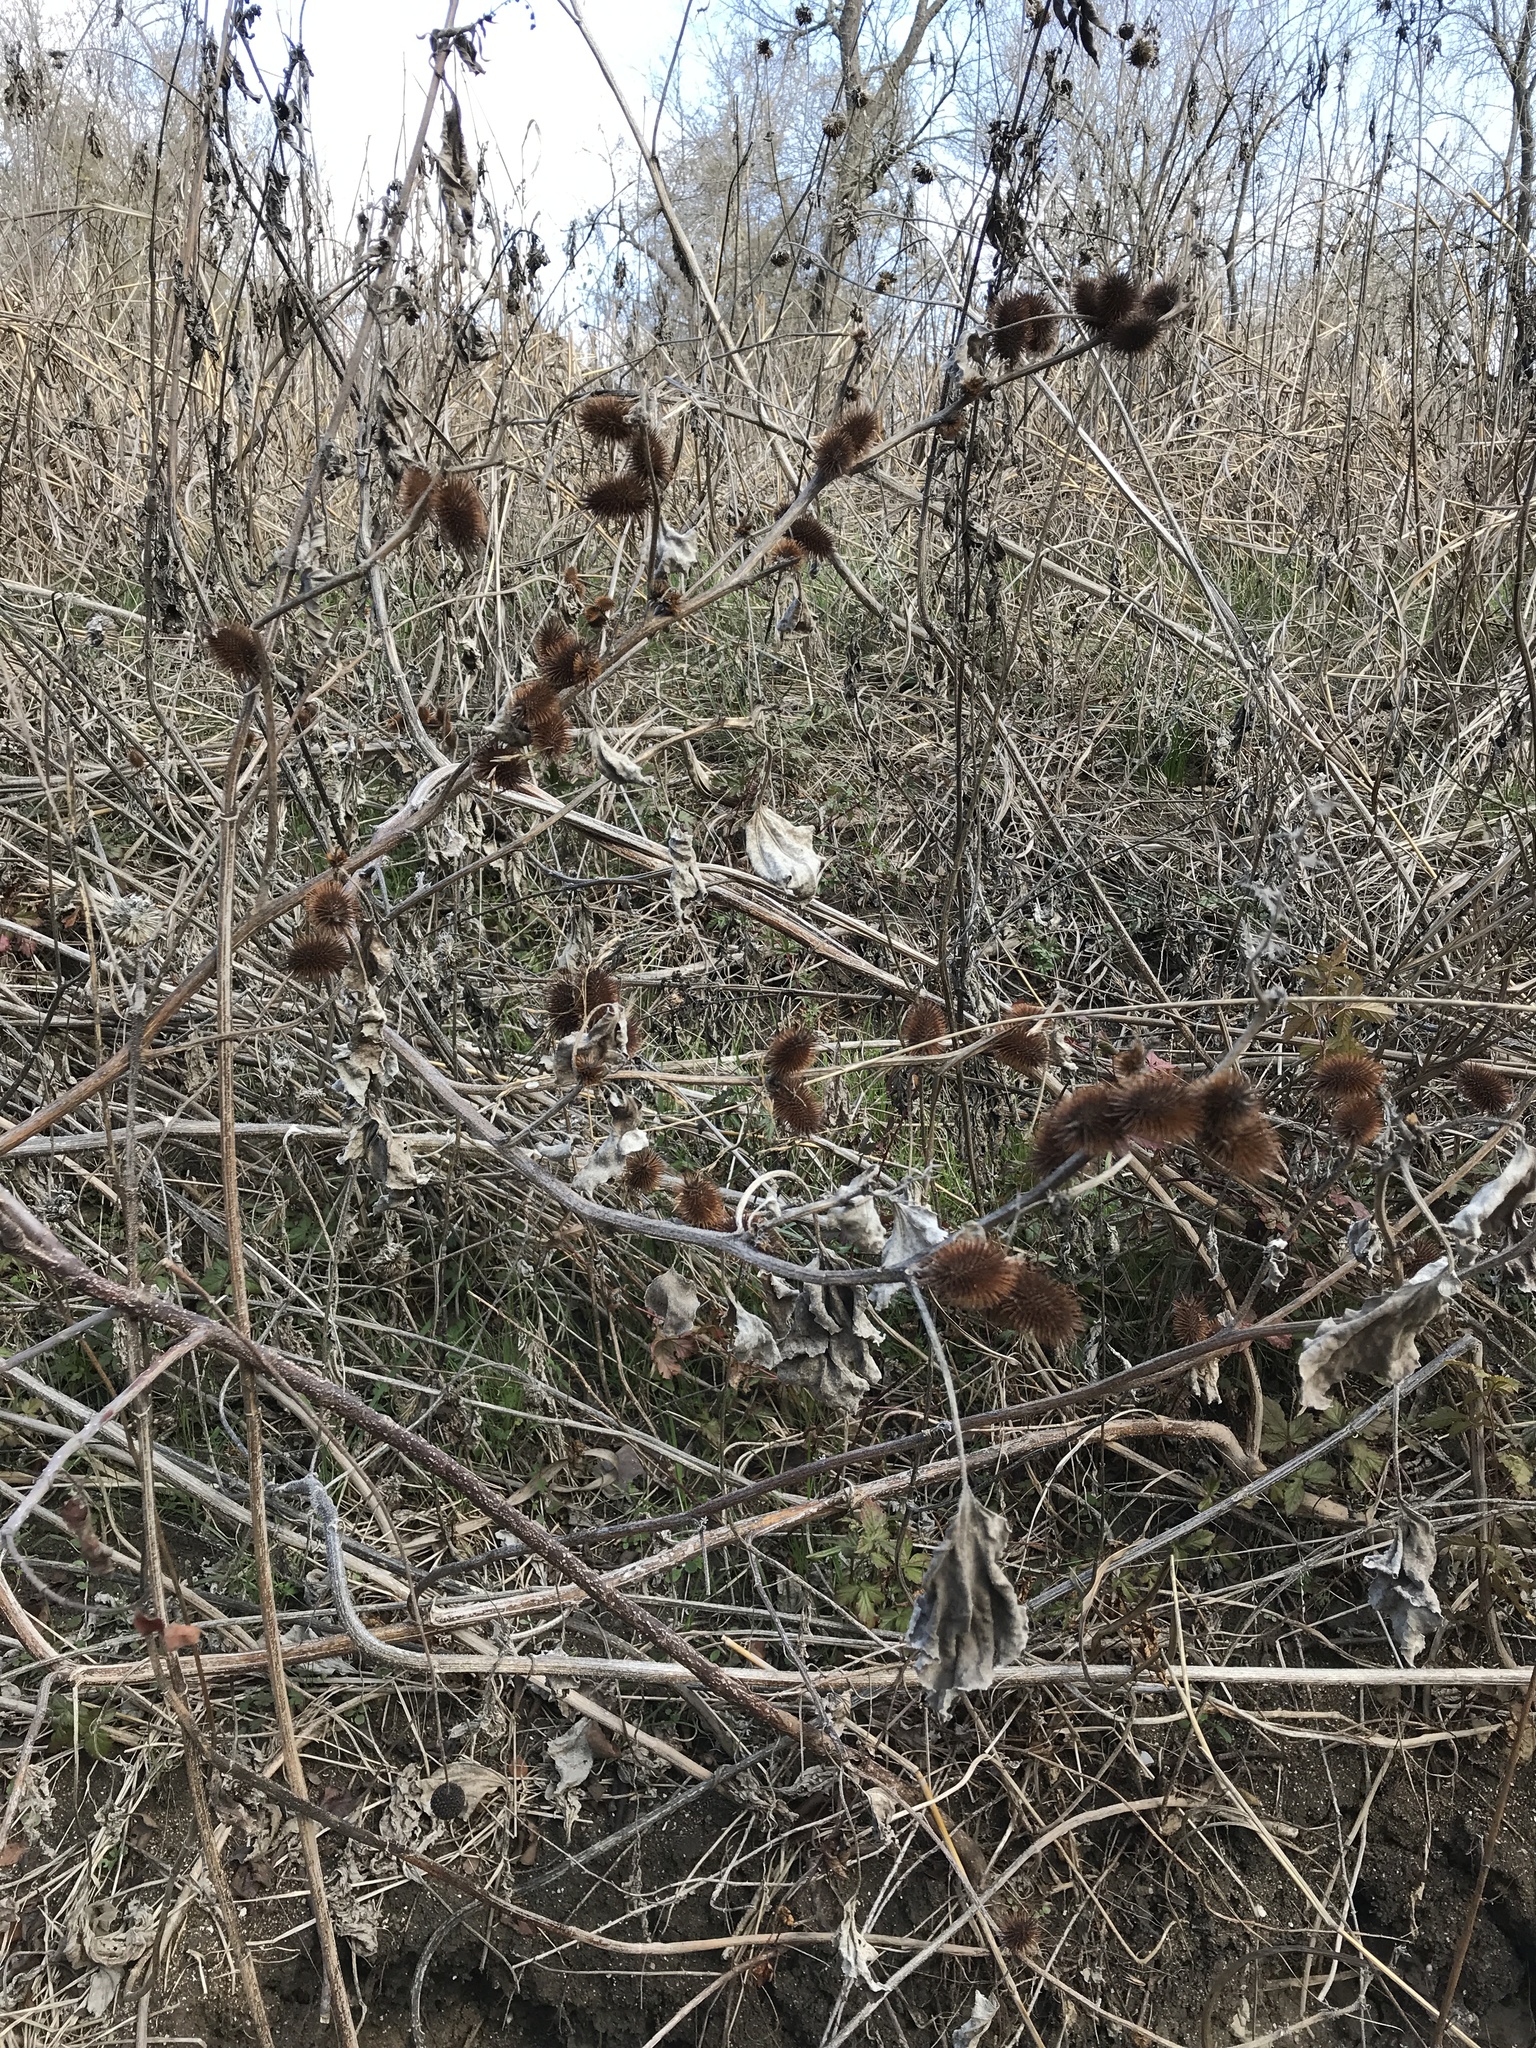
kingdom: Plantae
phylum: Tracheophyta
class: Magnoliopsida
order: Asterales
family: Asteraceae
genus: Xanthium
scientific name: Xanthium strumarium
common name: Rough cocklebur
